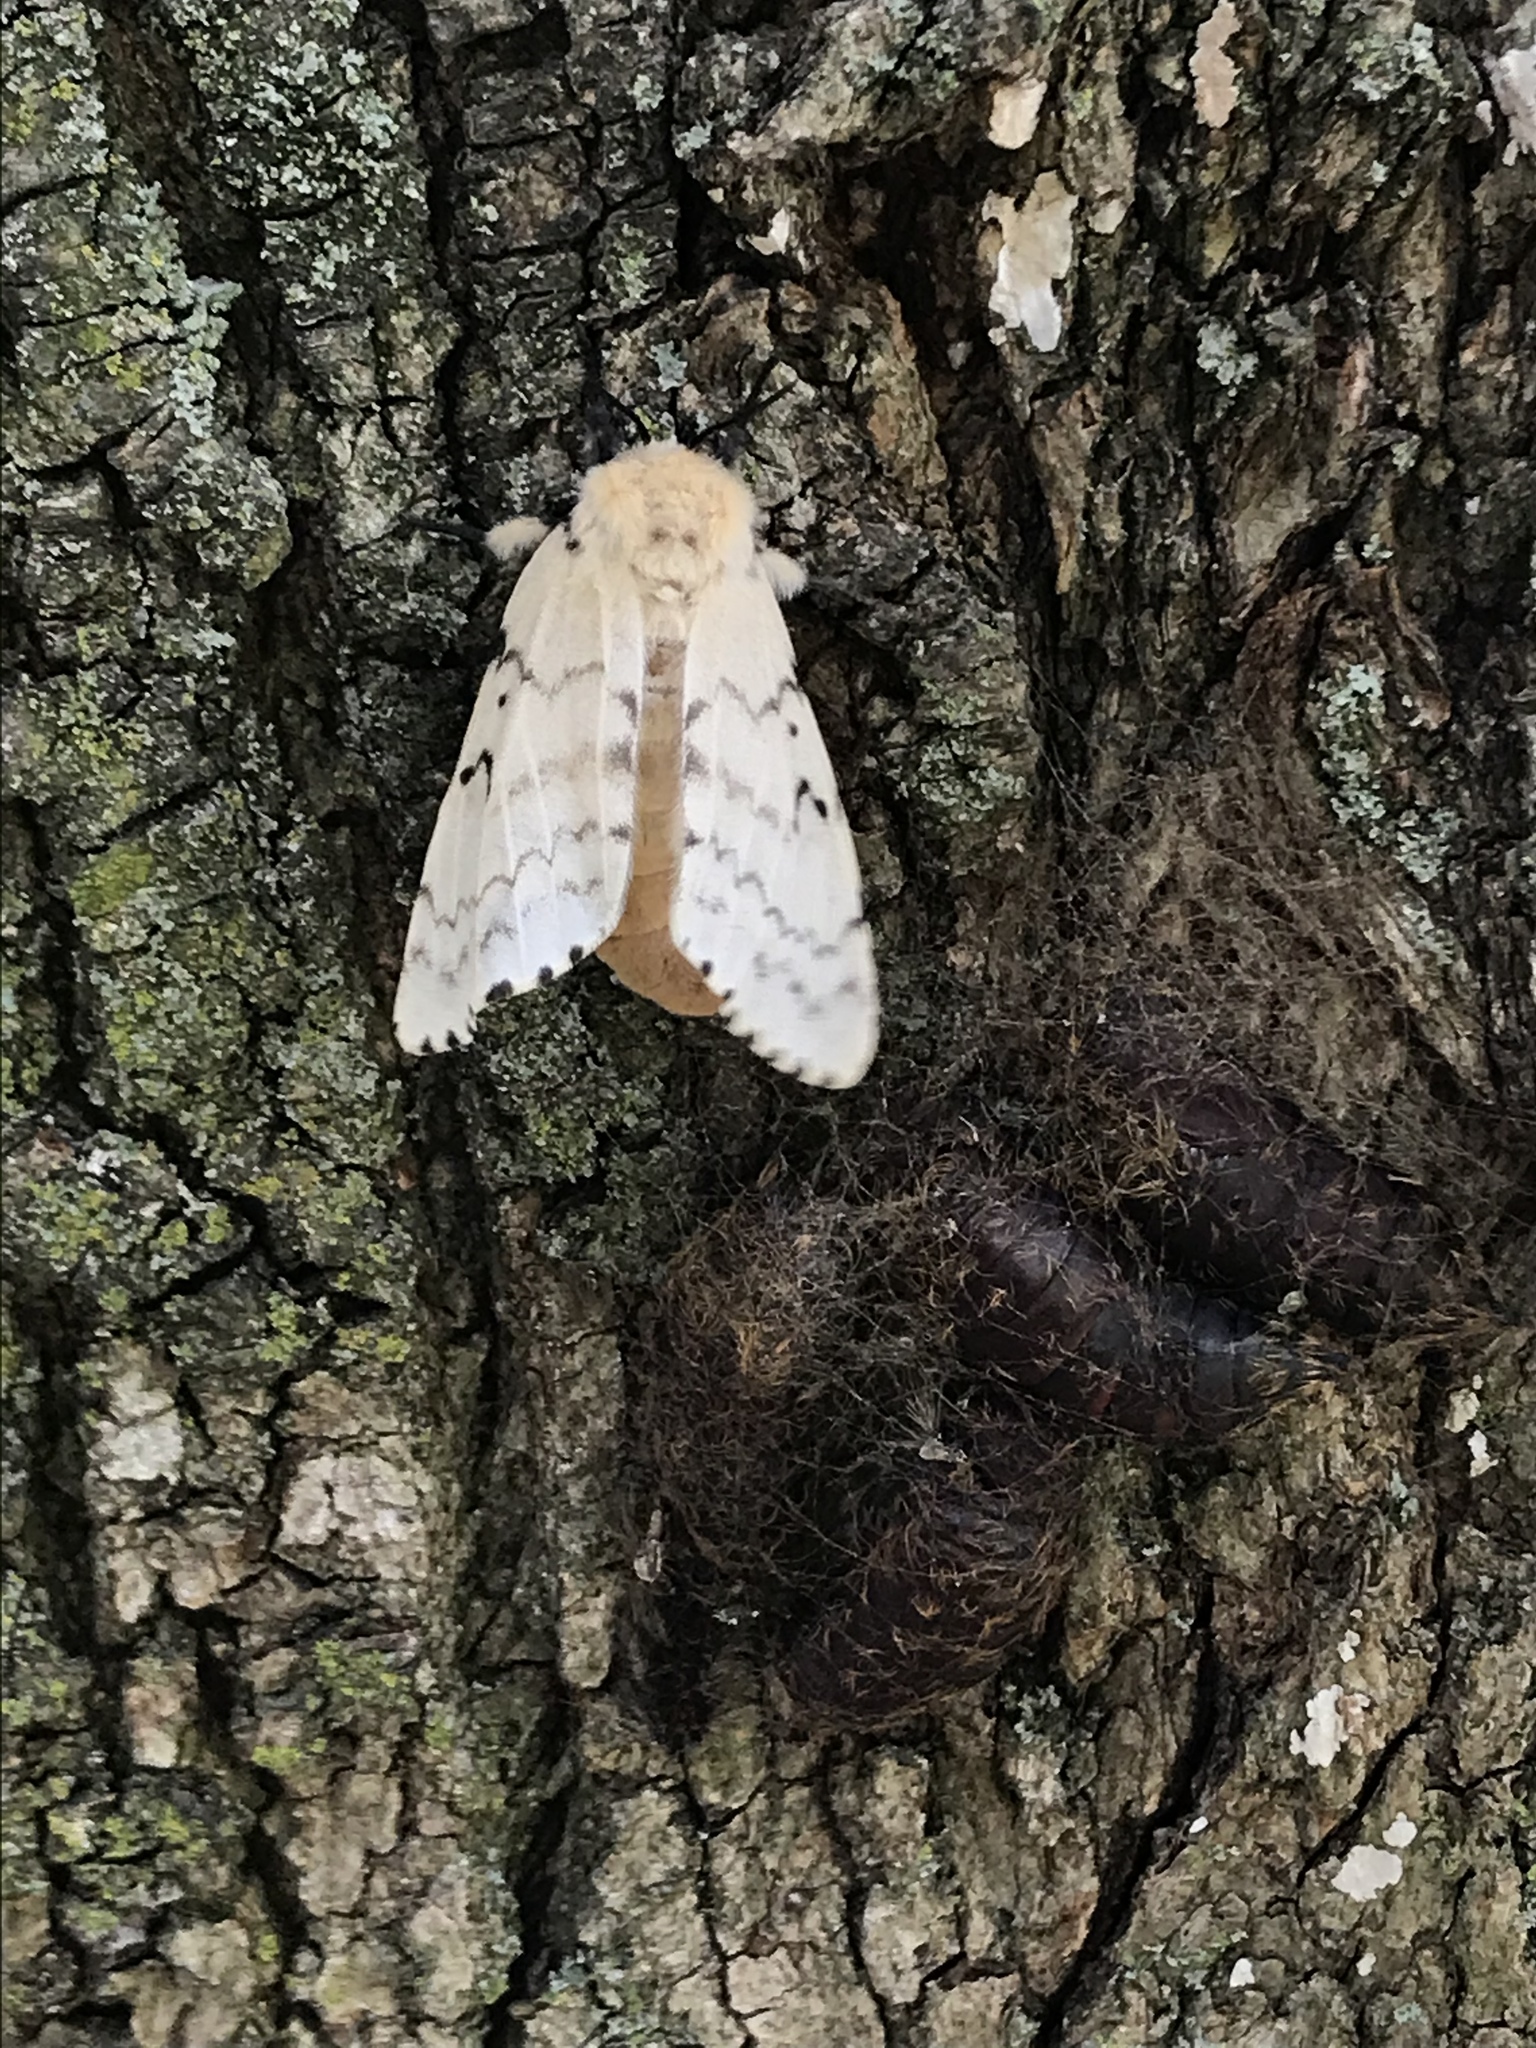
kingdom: Animalia
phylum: Arthropoda
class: Insecta
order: Lepidoptera
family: Erebidae
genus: Lymantria
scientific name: Lymantria dispar
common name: Gypsy moth
